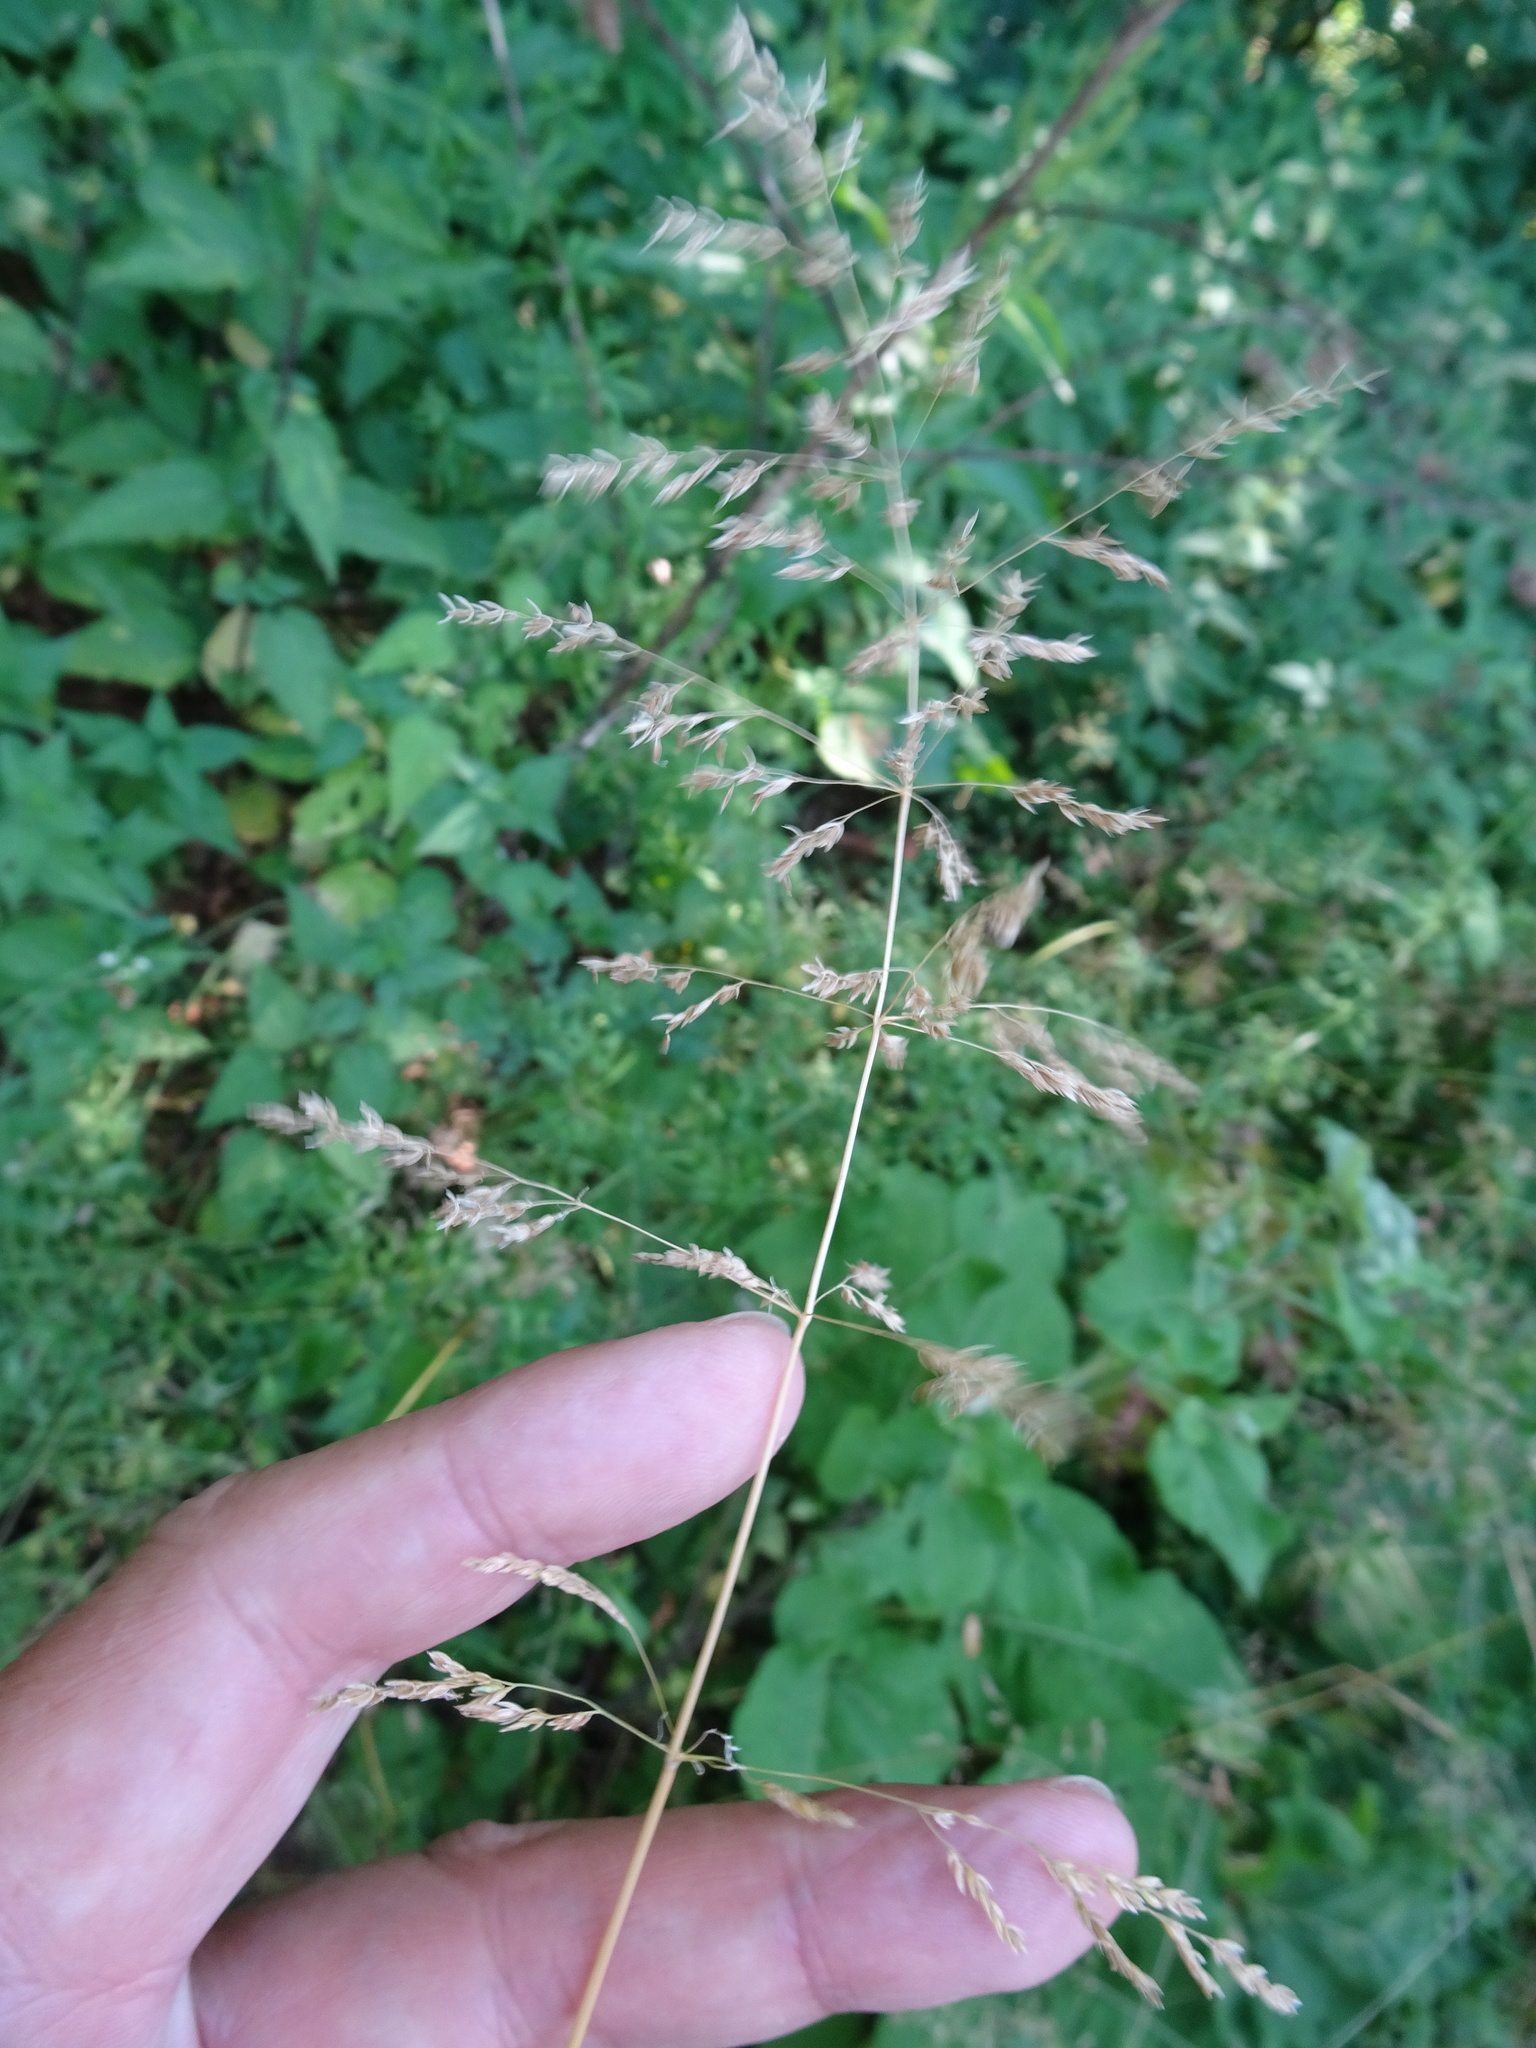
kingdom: Plantae
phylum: Tracheophyta
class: Liliopsida
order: Poales
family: Poaceae
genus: Poa
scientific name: Poa trivialis
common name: Rough bluegrass
